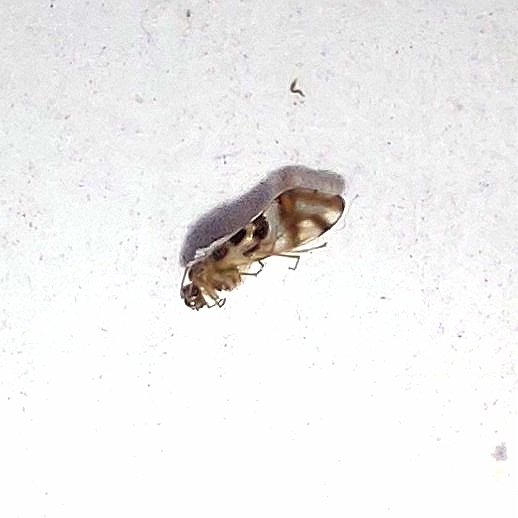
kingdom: Animalia
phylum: Arthropoda
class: Insecta
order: Psocodea
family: Stenopsocidae
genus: Graphopsocus
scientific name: Graphopsocus cruciatus
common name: Lizard bark louse
